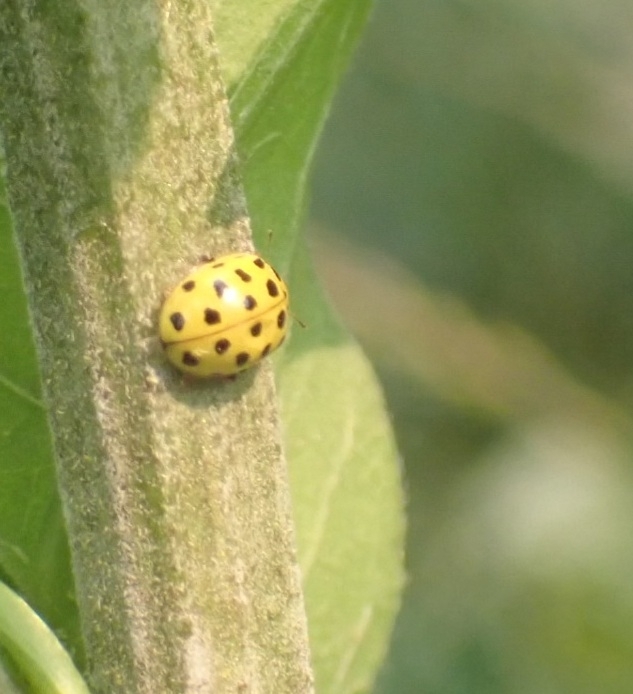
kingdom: Animalia
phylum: Arthropoda
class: Insecta
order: Coleoptera
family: Coccinellidae
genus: Psyllobora
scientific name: Psyllobora vigintiduopunctata
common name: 22-spot ladybird
